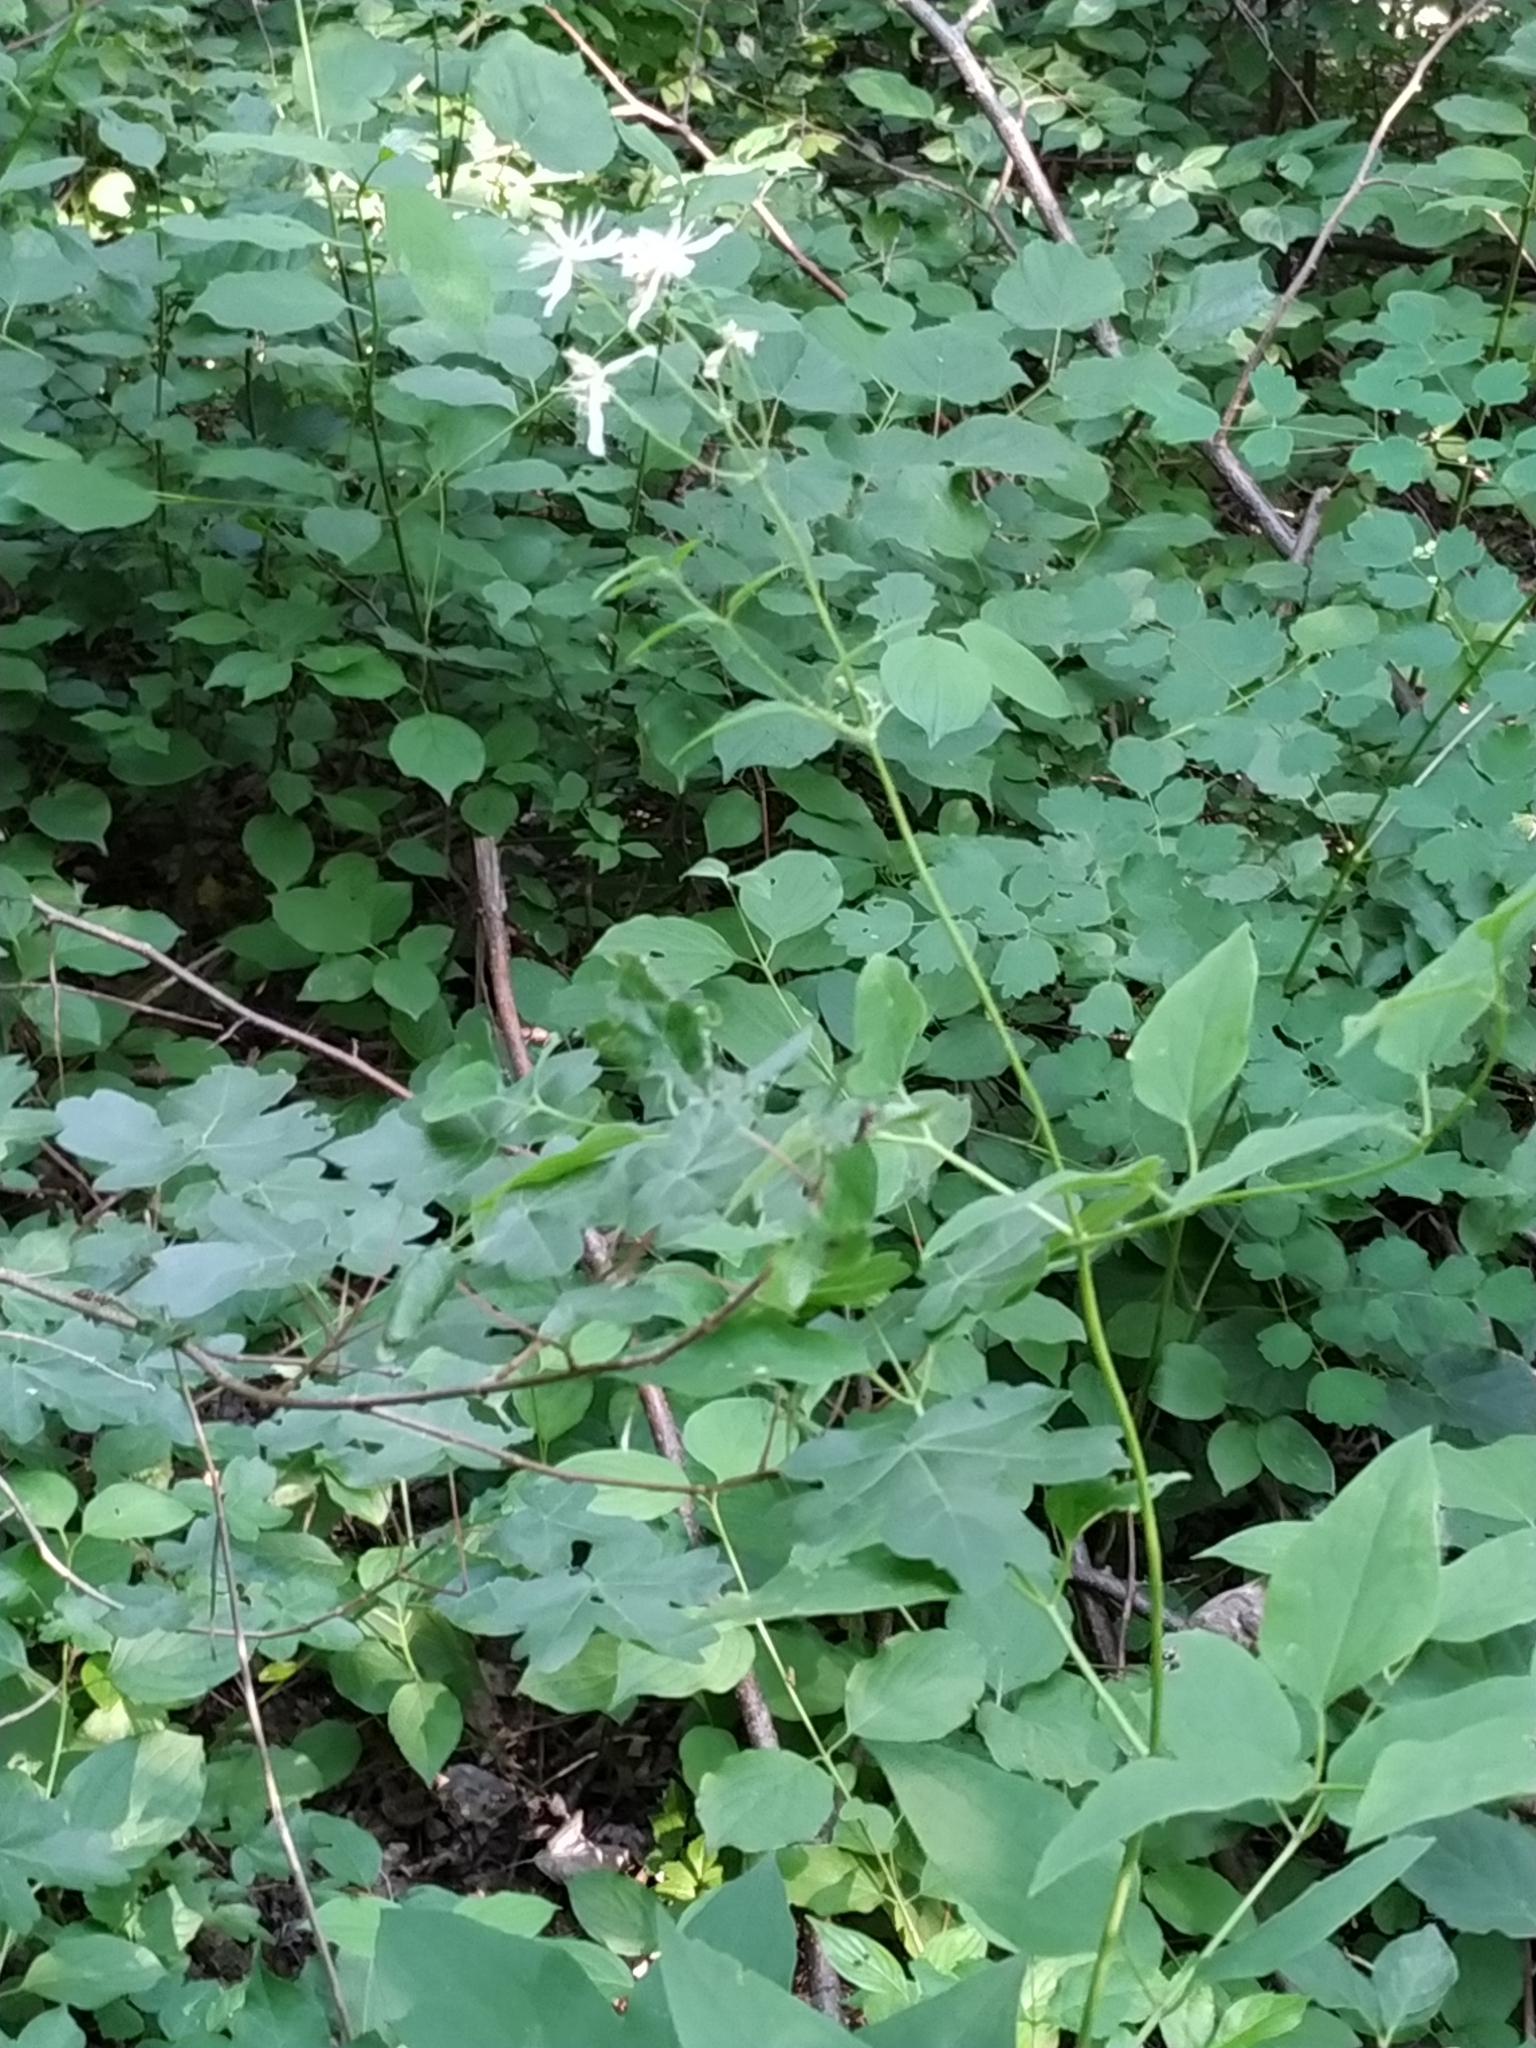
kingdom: Plantae
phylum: Tracheophyta
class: Magnoliopsida
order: Ranunculales
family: Ranunculaceae
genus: Clematis
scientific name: Clematis recta
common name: Ground clematis
